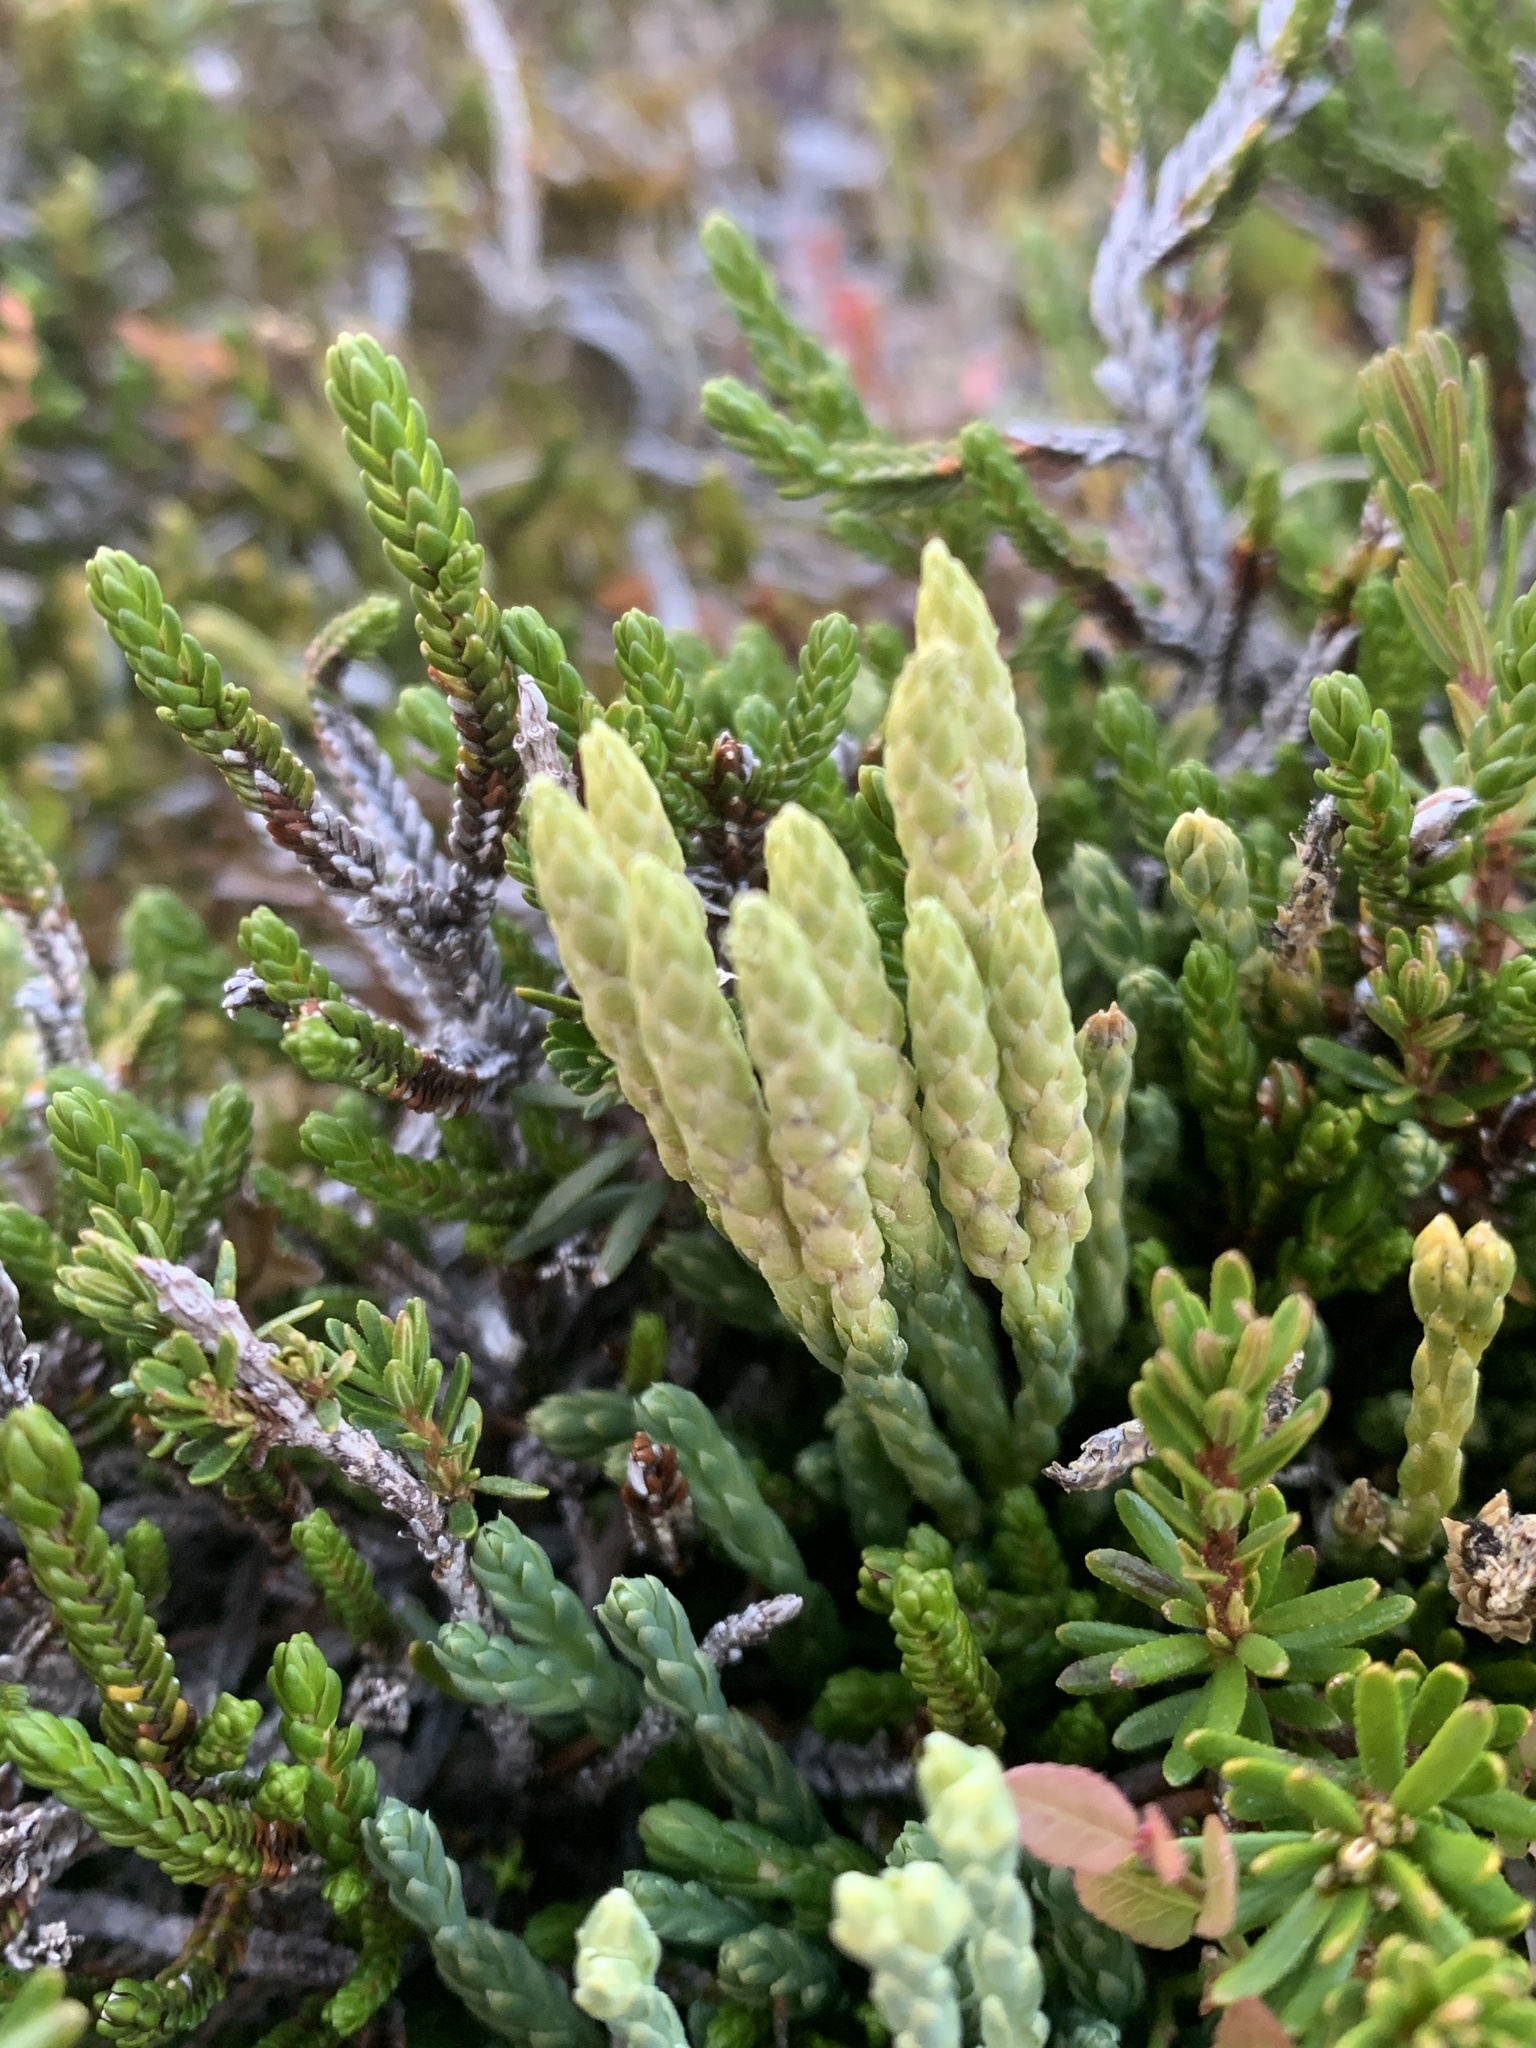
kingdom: Plantae
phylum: Tracheophyta
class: Lycopodiopsida
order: Lycopodiales
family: Lycopodiaceae
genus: Diphasiastrum
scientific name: Diphasiastrum alpinum
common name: Alpine clubmoss
